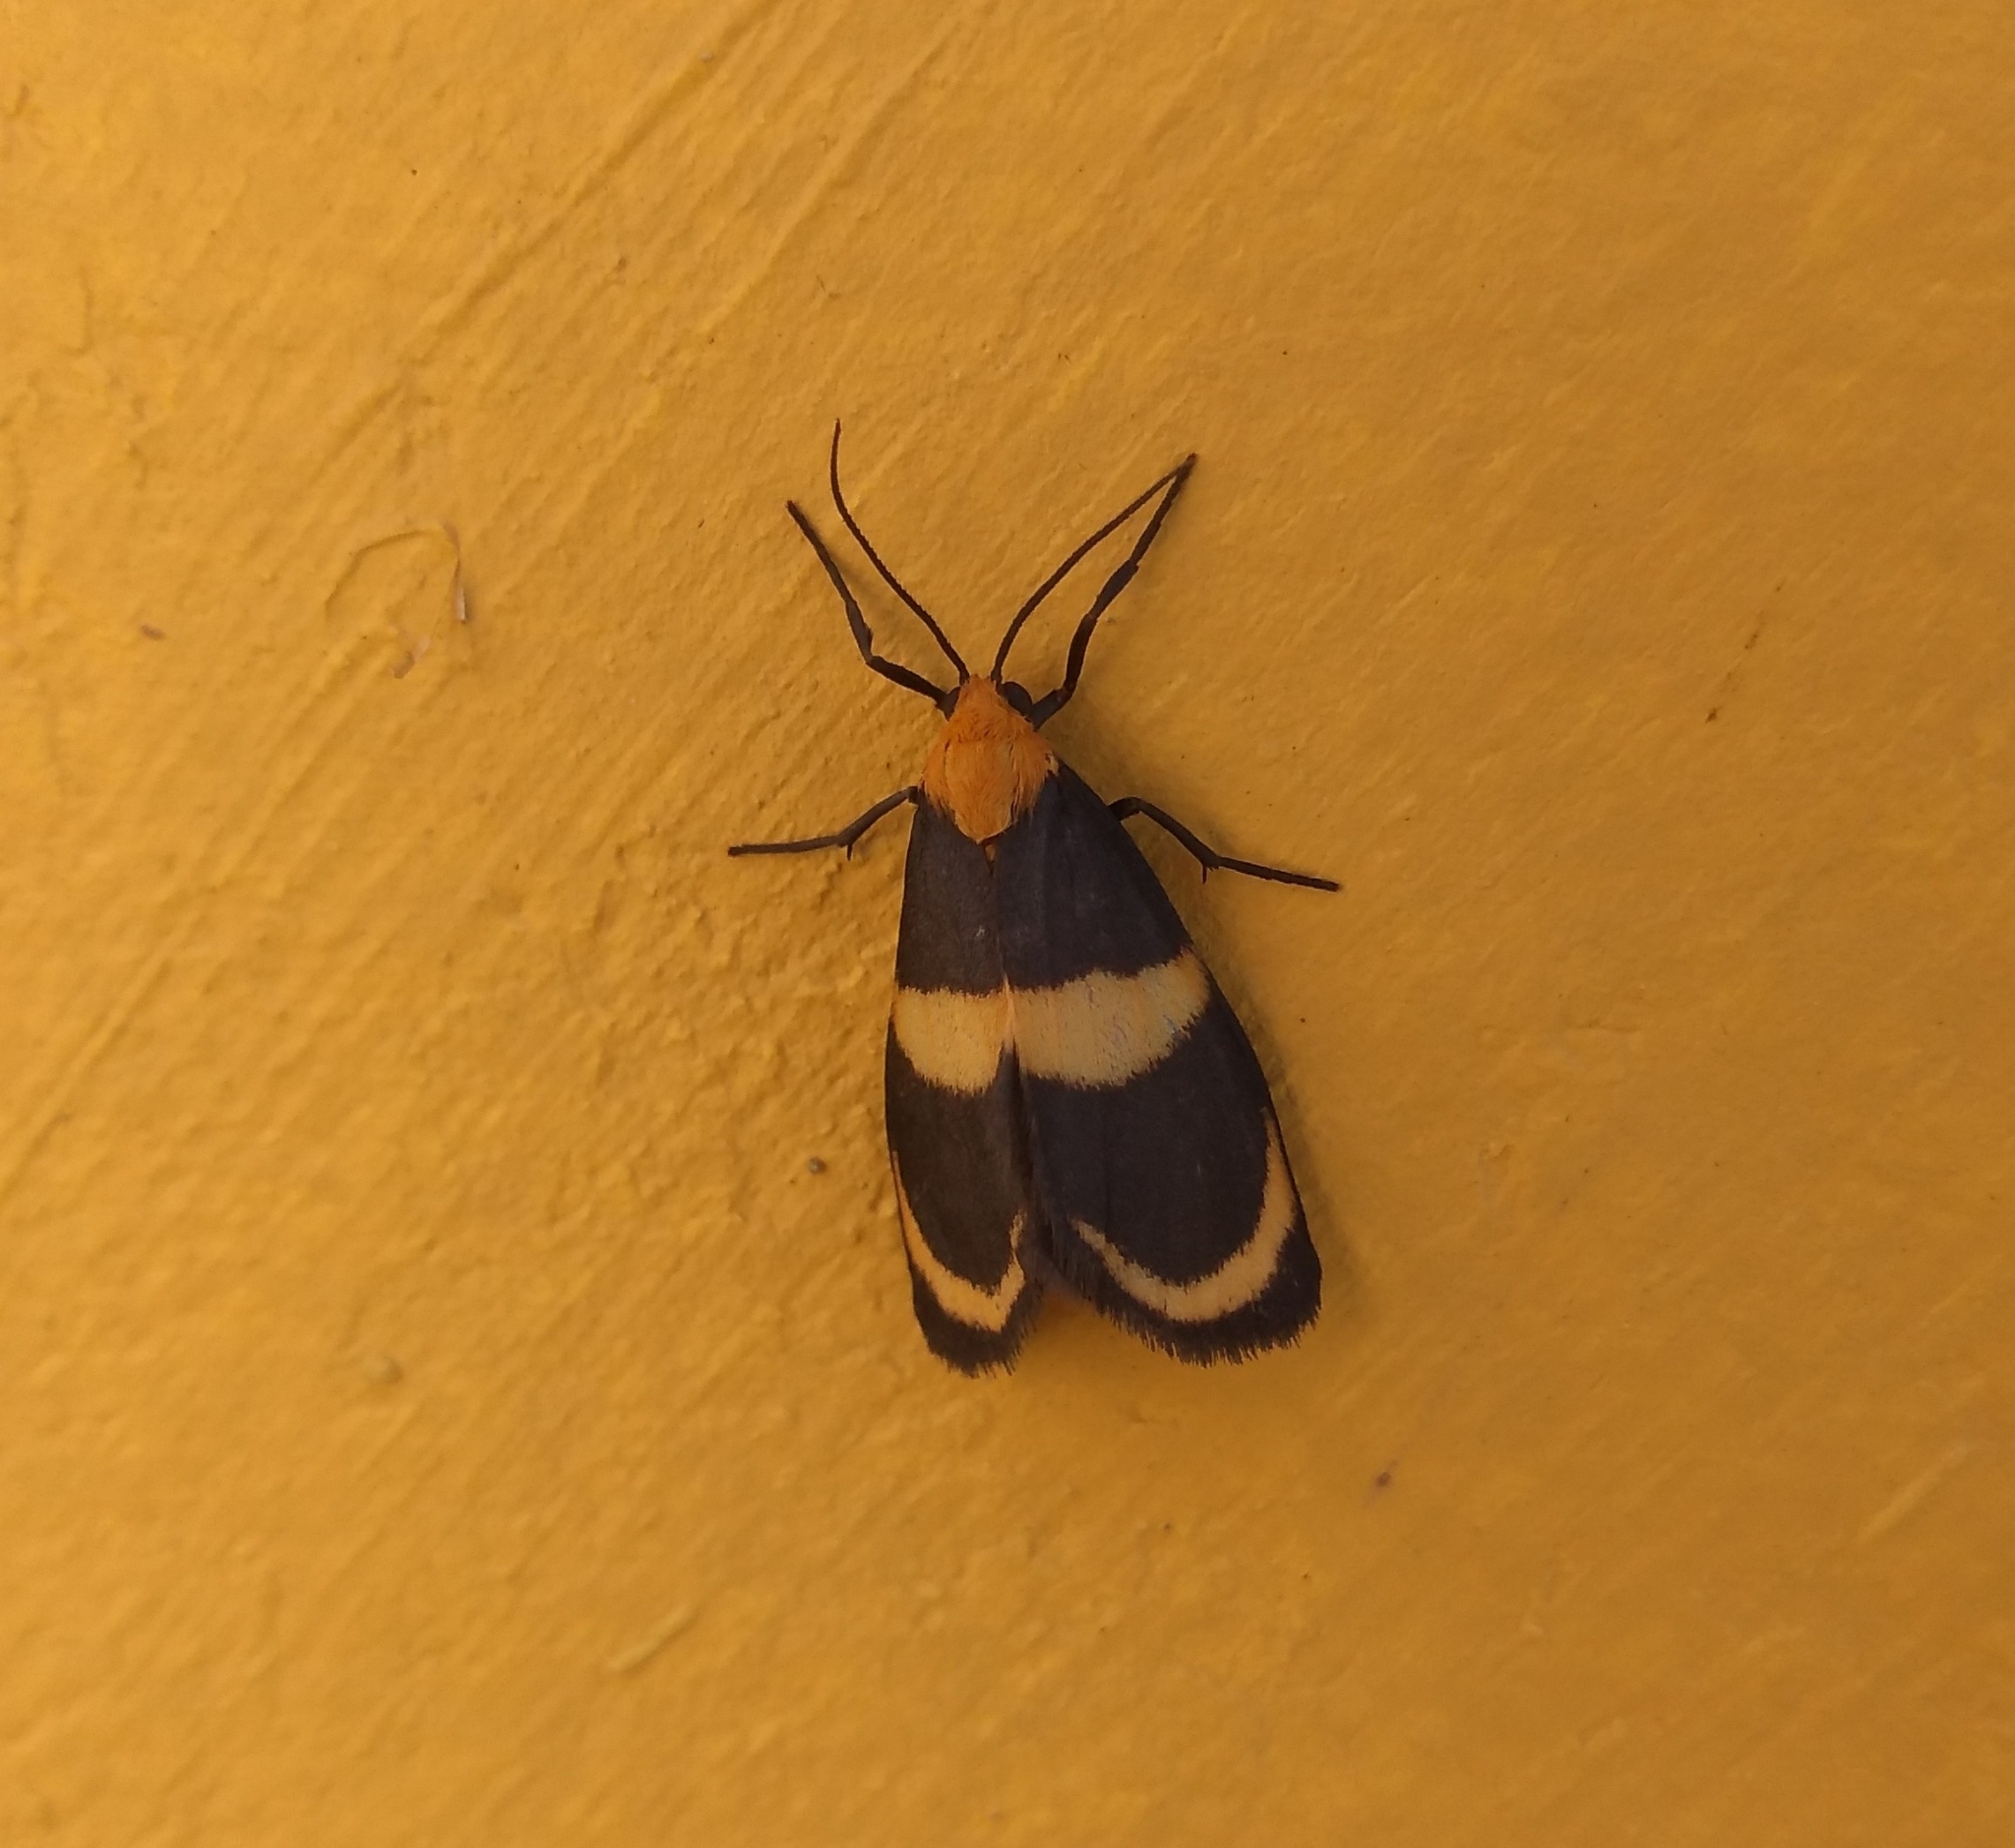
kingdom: Animalia
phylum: Arthropoda
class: Insecta
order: Lepidoptera
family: Erebidae
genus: Eudesmia
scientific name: Eudesmia menea
